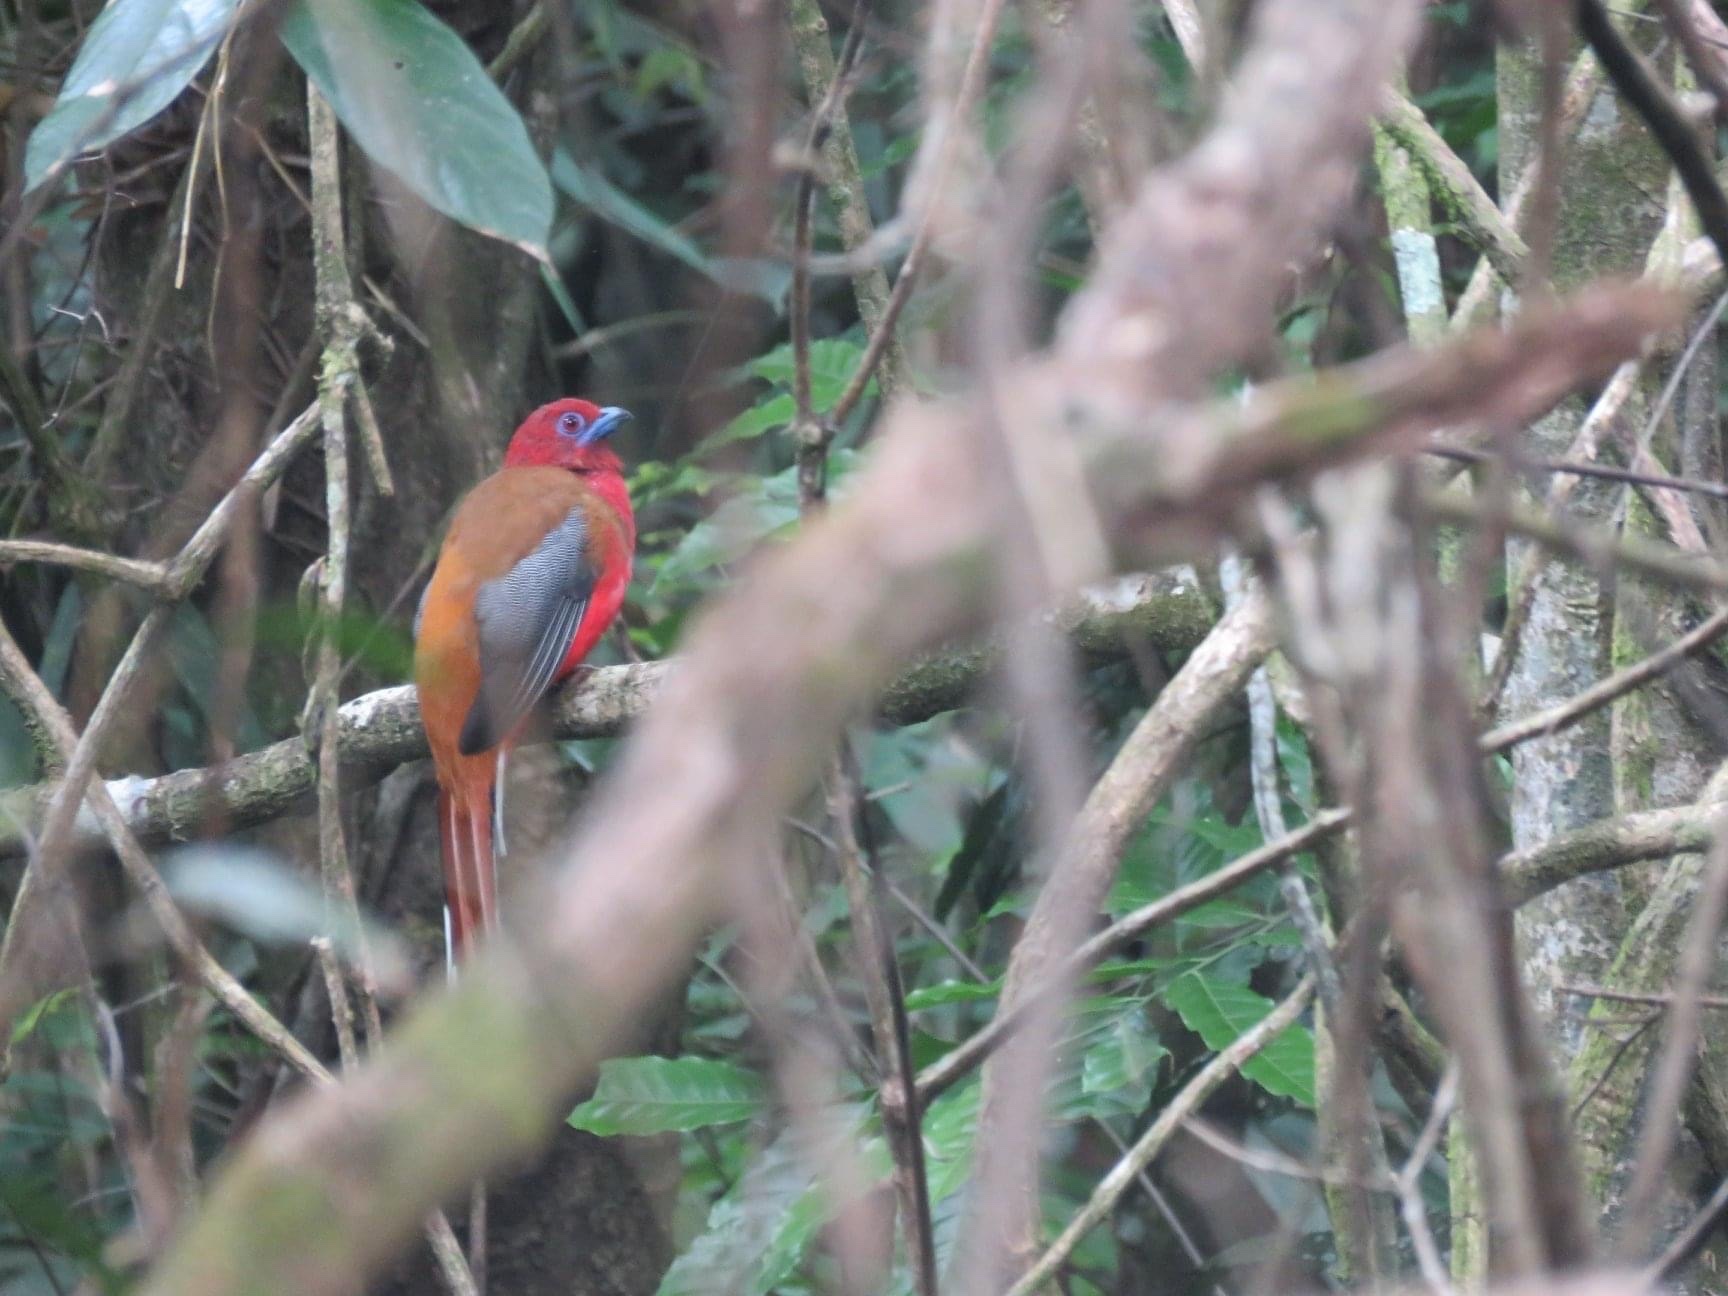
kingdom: Animalia
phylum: Chordata
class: Aves
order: Trogoniformes
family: Trogonidae
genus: Harpactes
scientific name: Harpactes erythrocephalus
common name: Red-headed trogon
